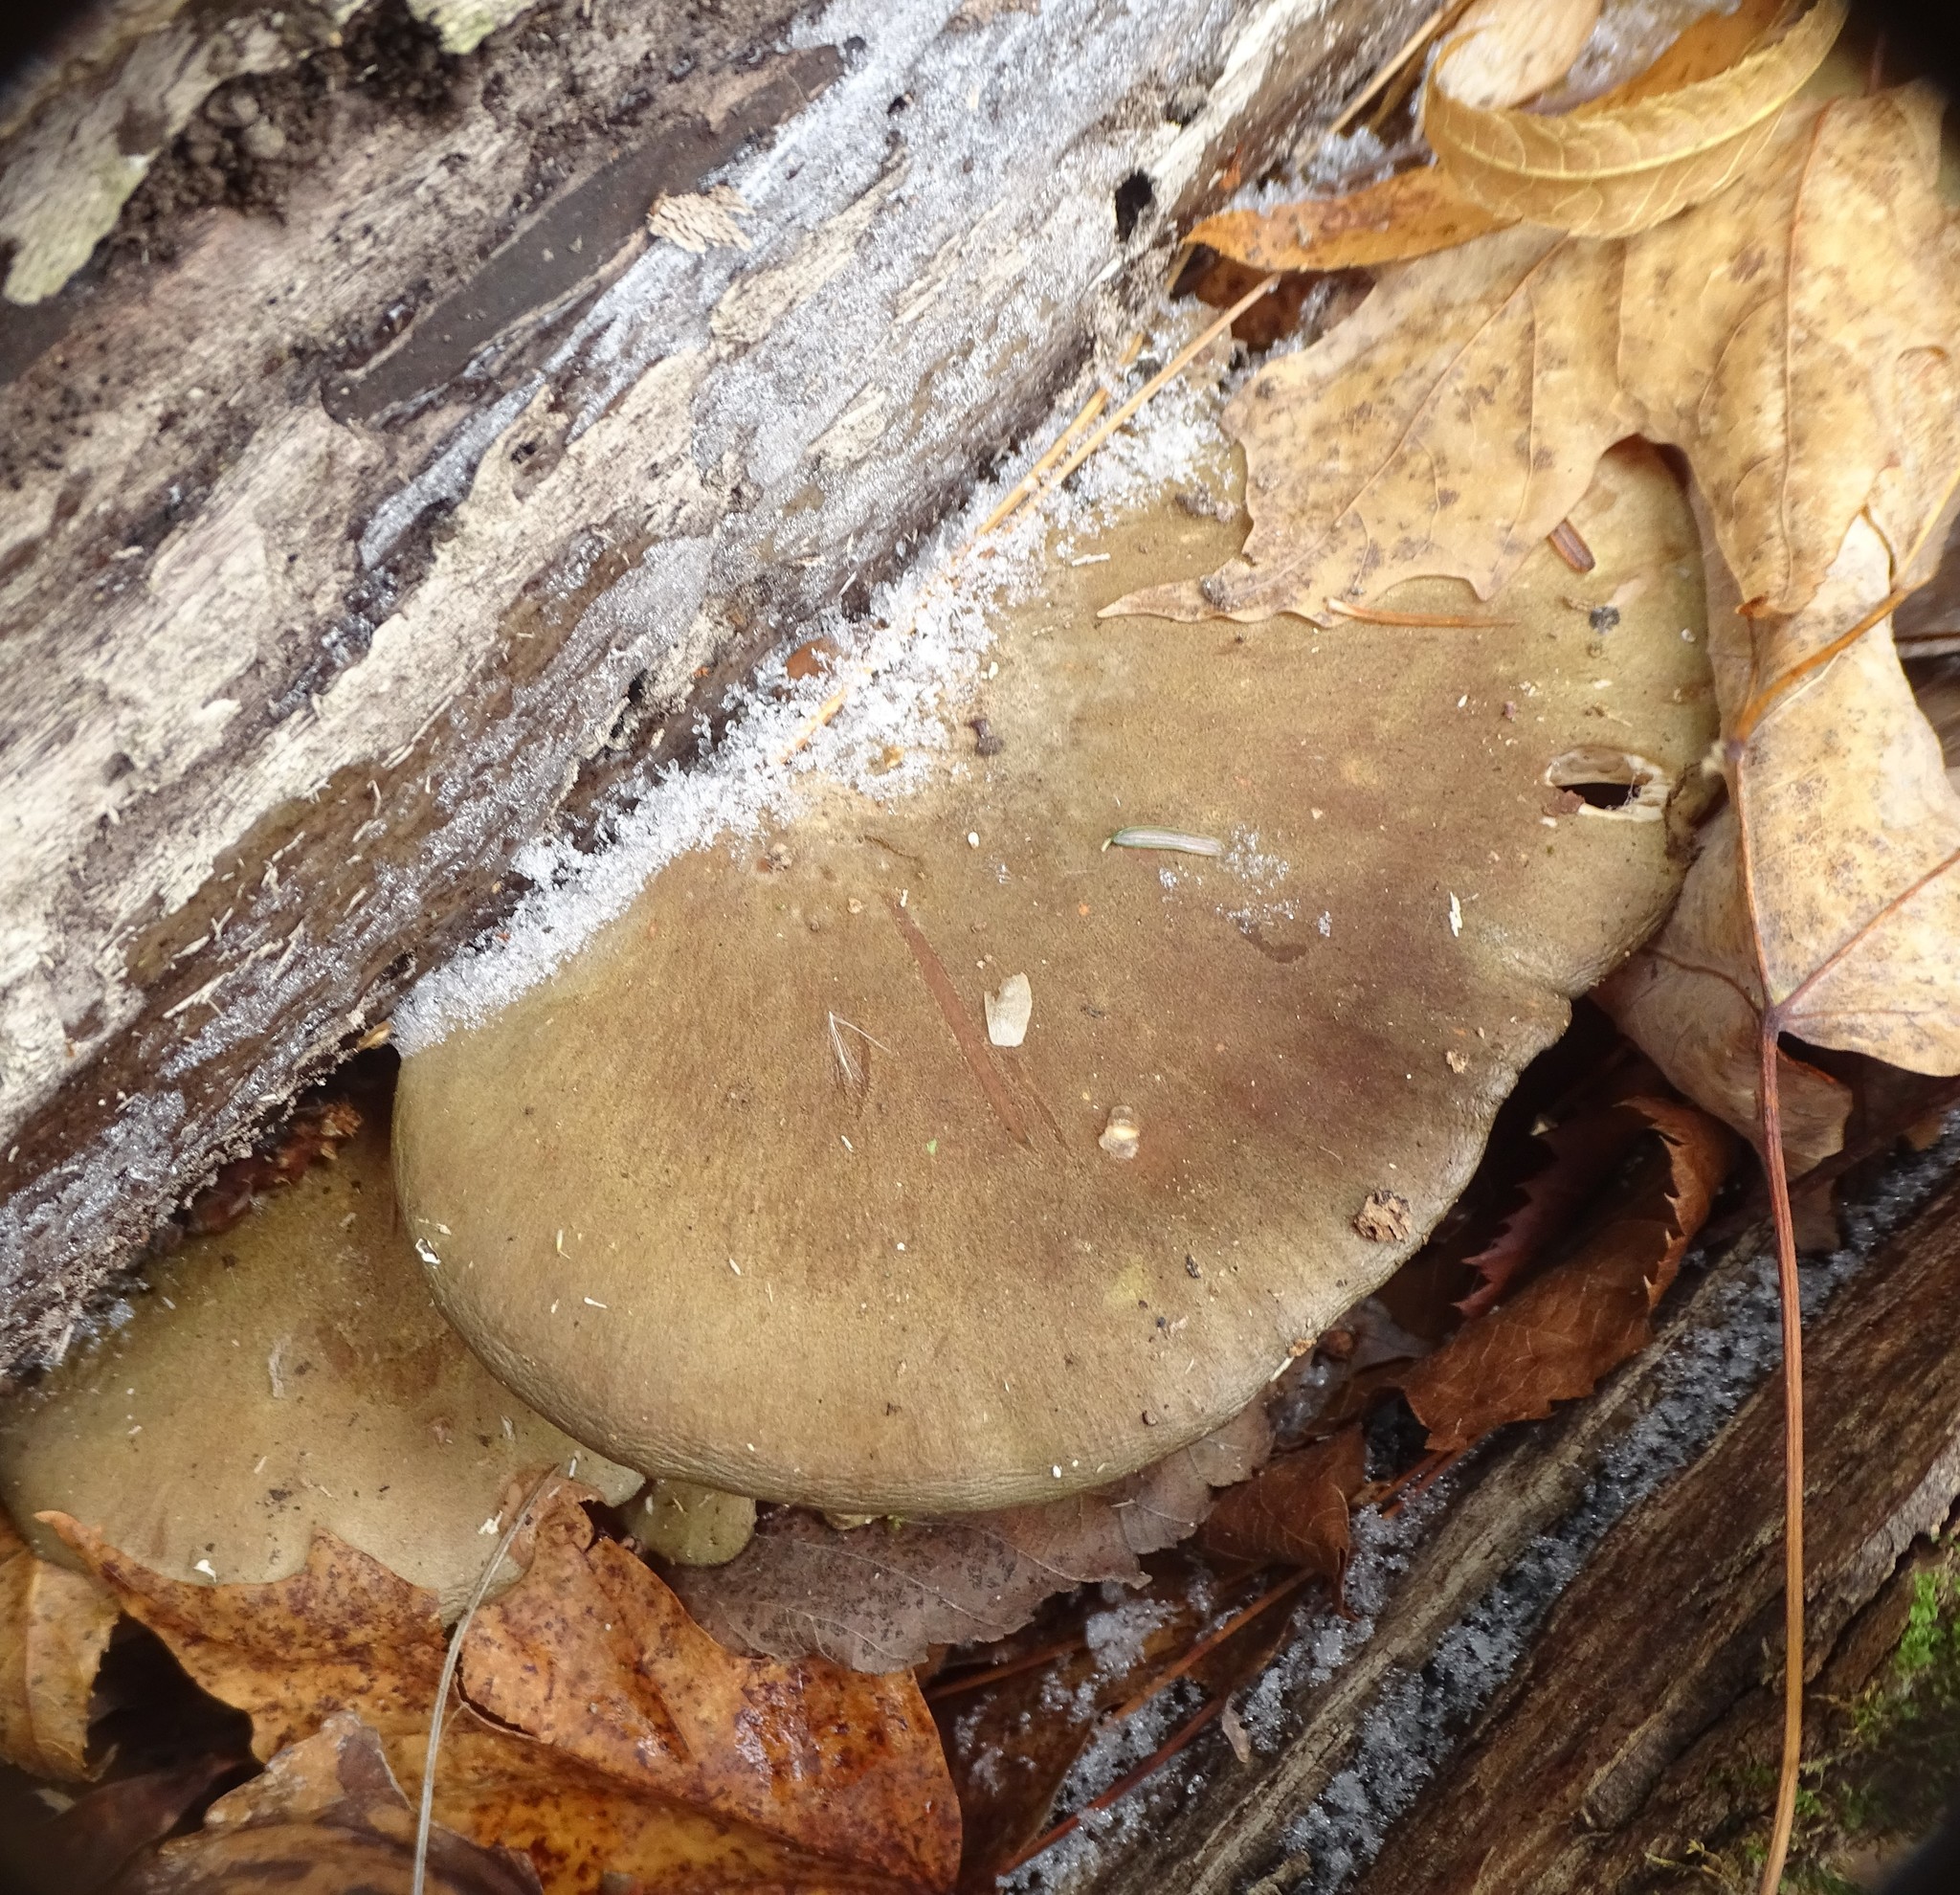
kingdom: Fungi
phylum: Basidiomycota
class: Agaricomycetes
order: Agaricales
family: Sarcomyxaceae
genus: Sarcomyxa
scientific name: Sarcomyxa serotina
